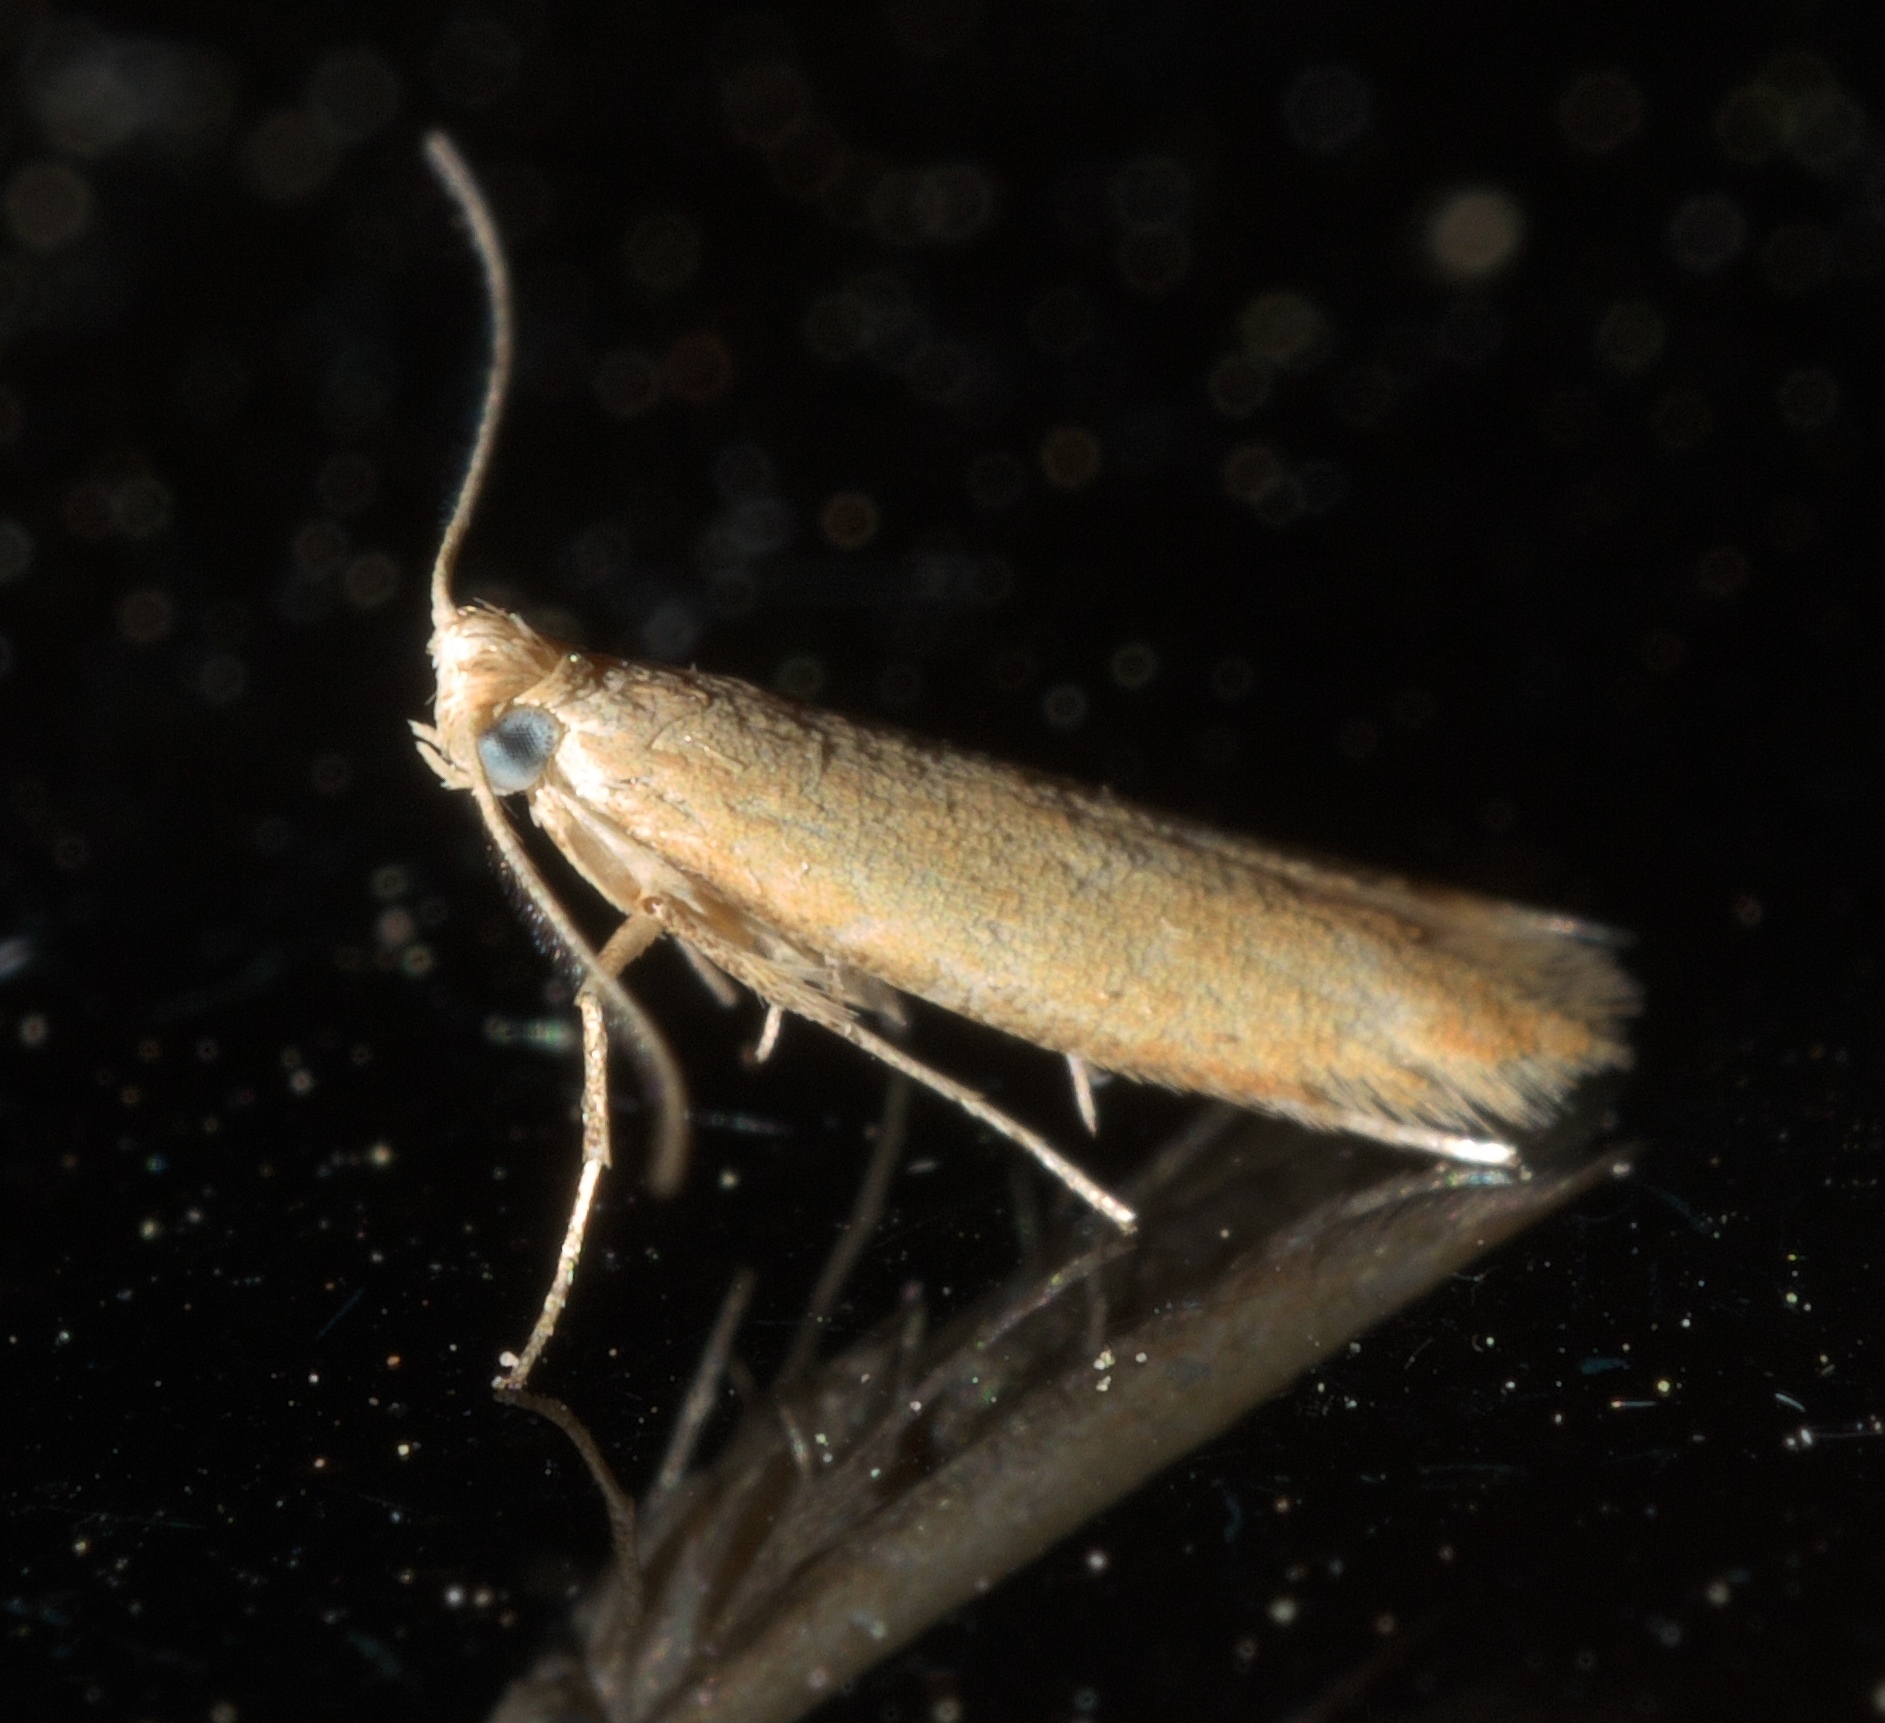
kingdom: Animalia
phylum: Arthropoda
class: Insecta
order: Lepidoptera
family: Tischeriidae
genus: Coptotriche
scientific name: Coptotriche citrinipennella
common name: The golden sweeper
